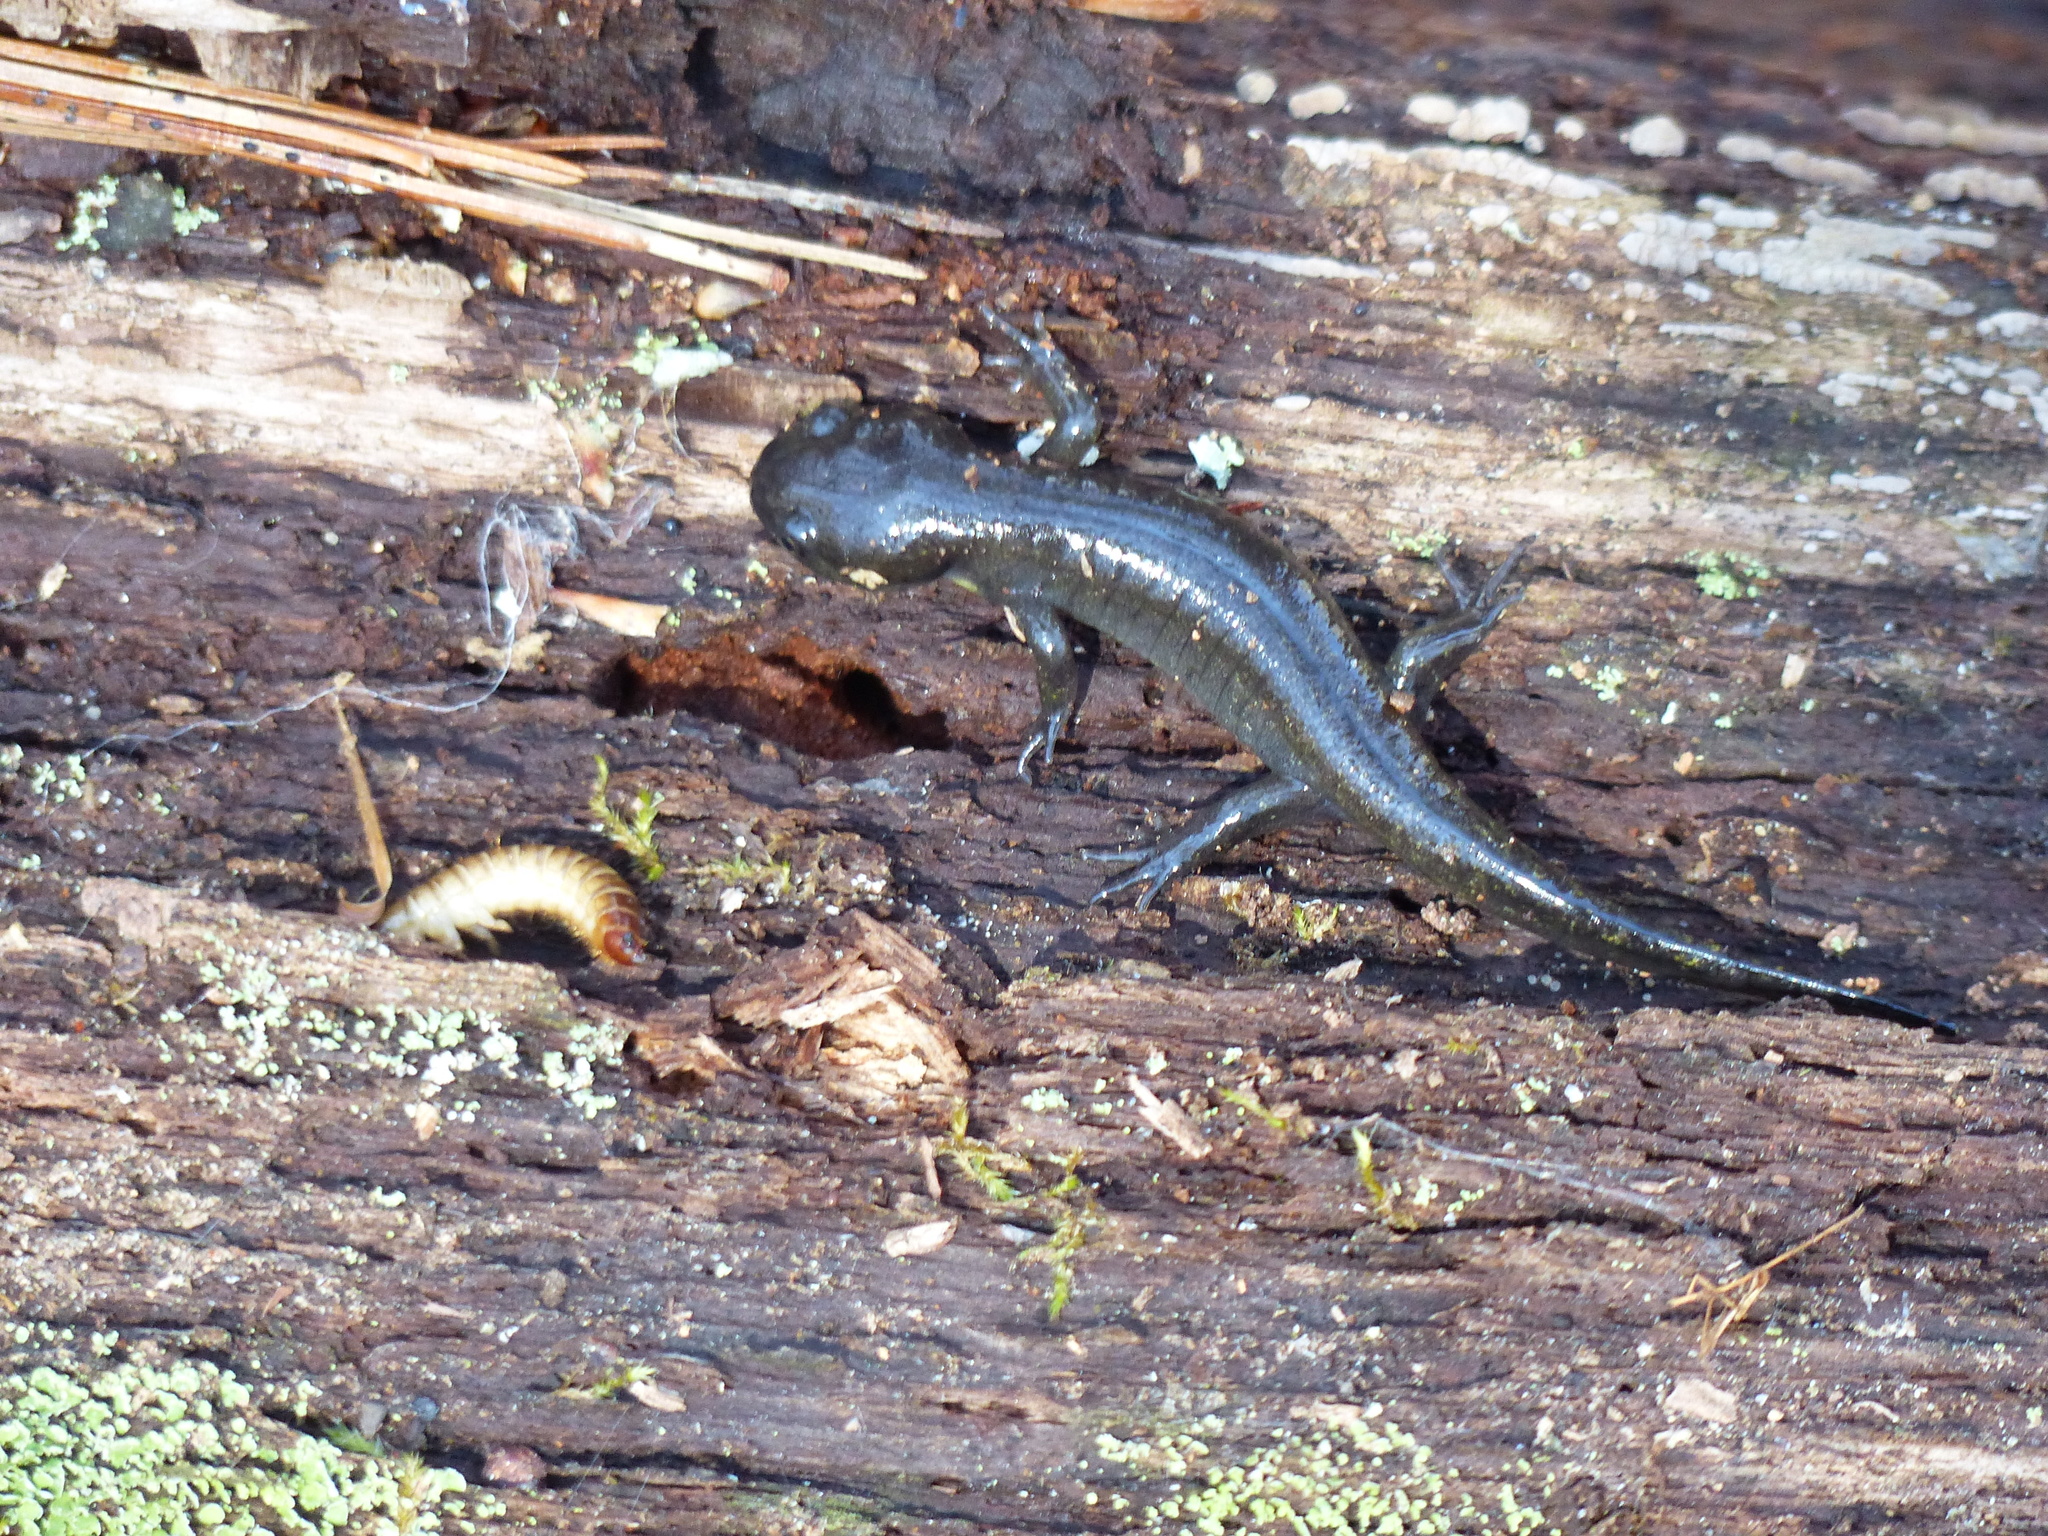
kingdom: Animalia
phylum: Chordata
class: Amphibia
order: Caudata
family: Ambystomatidae
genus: Ambystoma
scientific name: Ambystoma maculatum
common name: Spotted salamander
